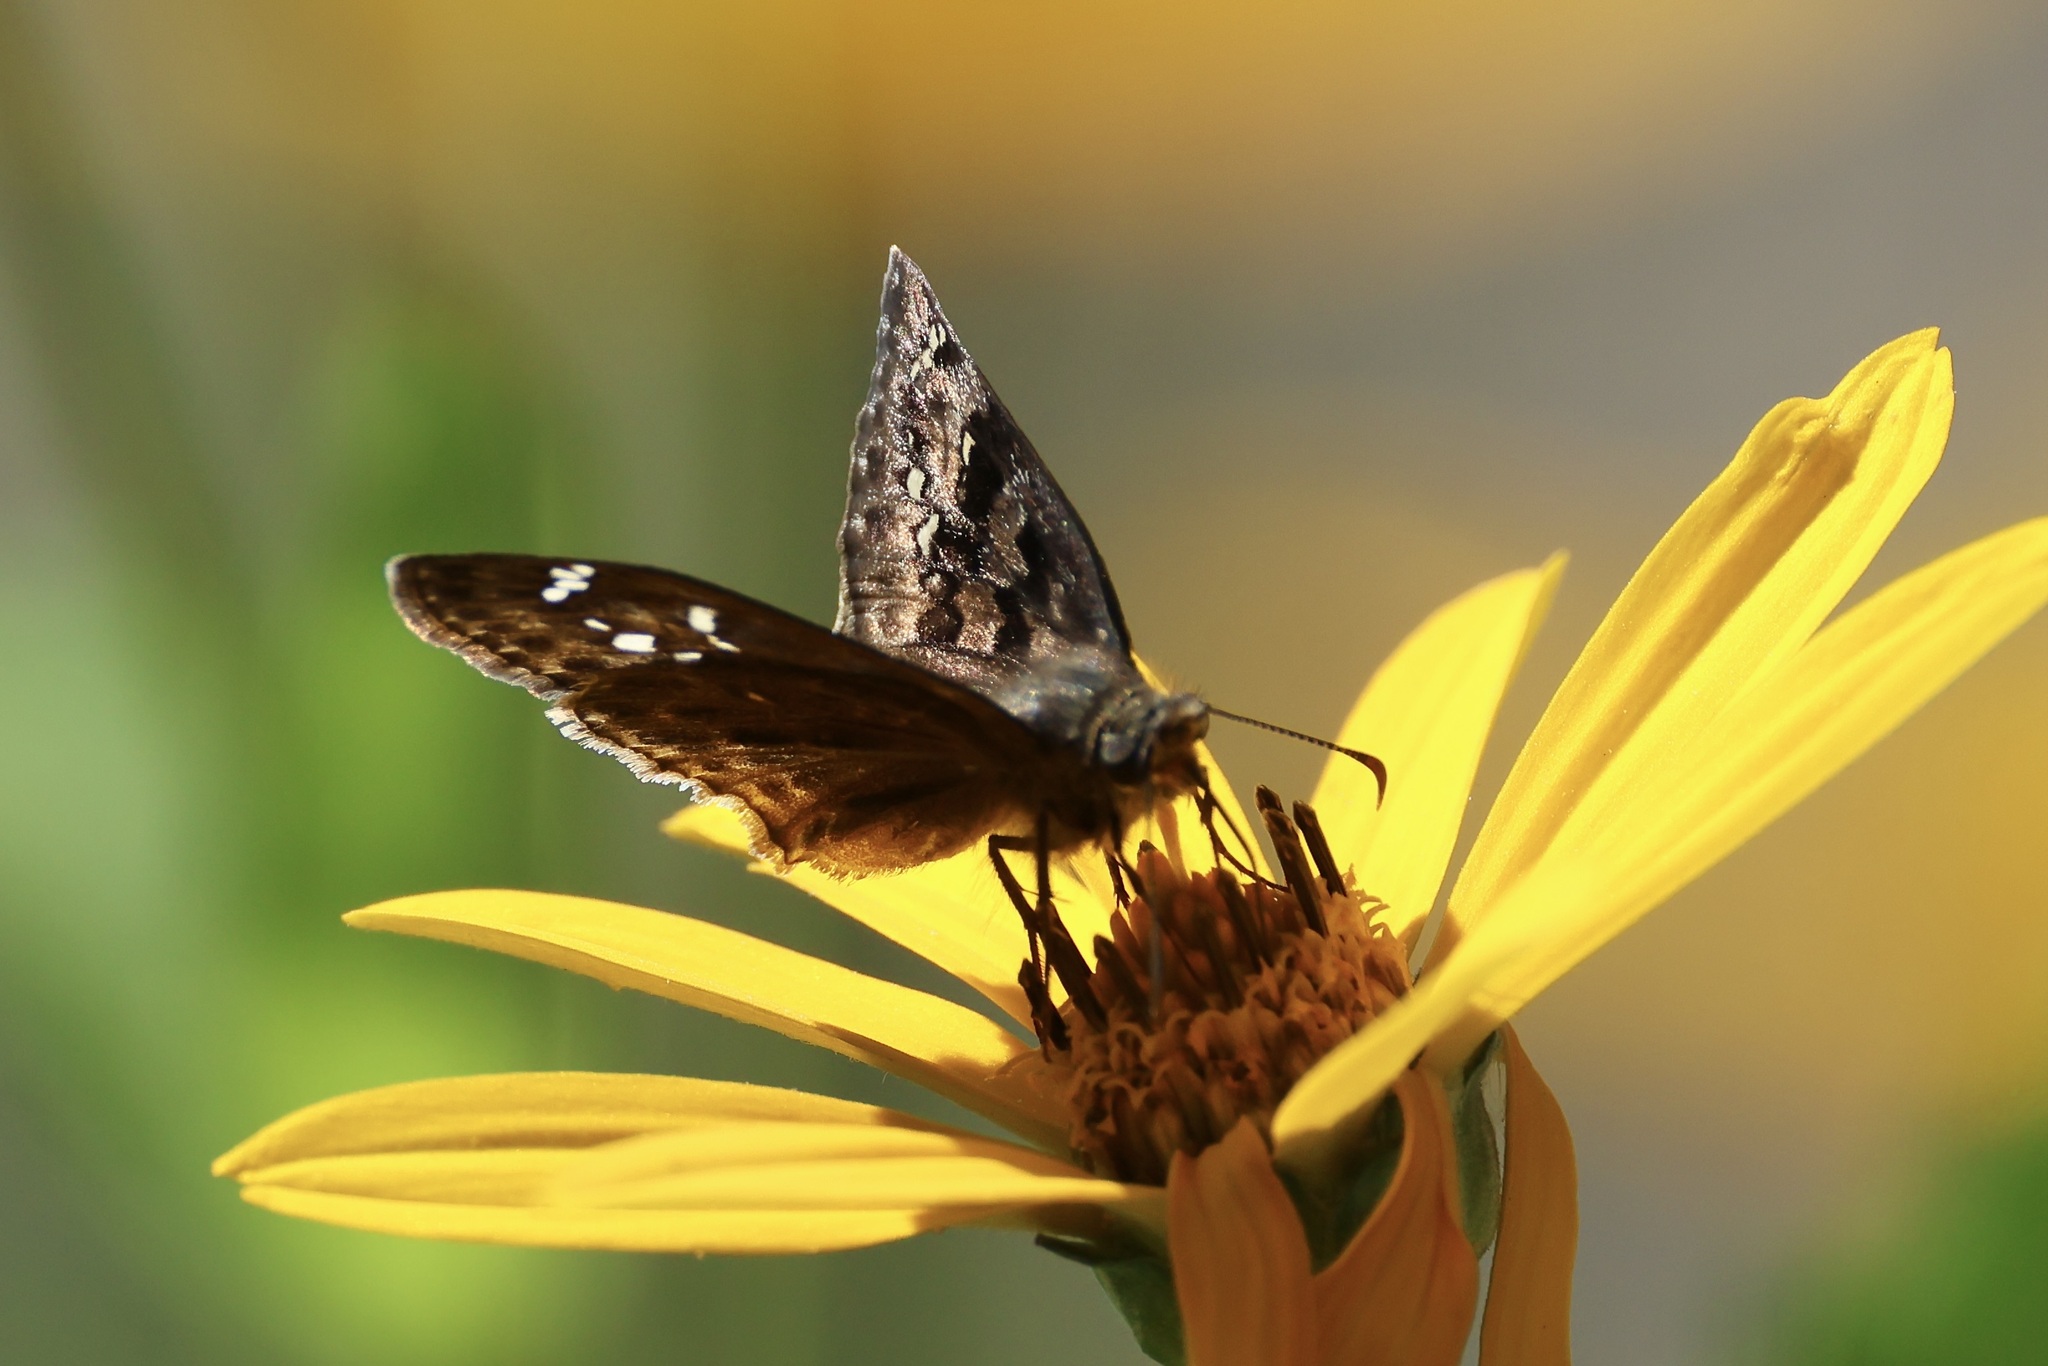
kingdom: Animalia
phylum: Arthropoda
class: Insecta
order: Lepidoptera
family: Hesperiidae
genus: Erynnis
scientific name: Erynnis horatius
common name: Horace's duskywing
